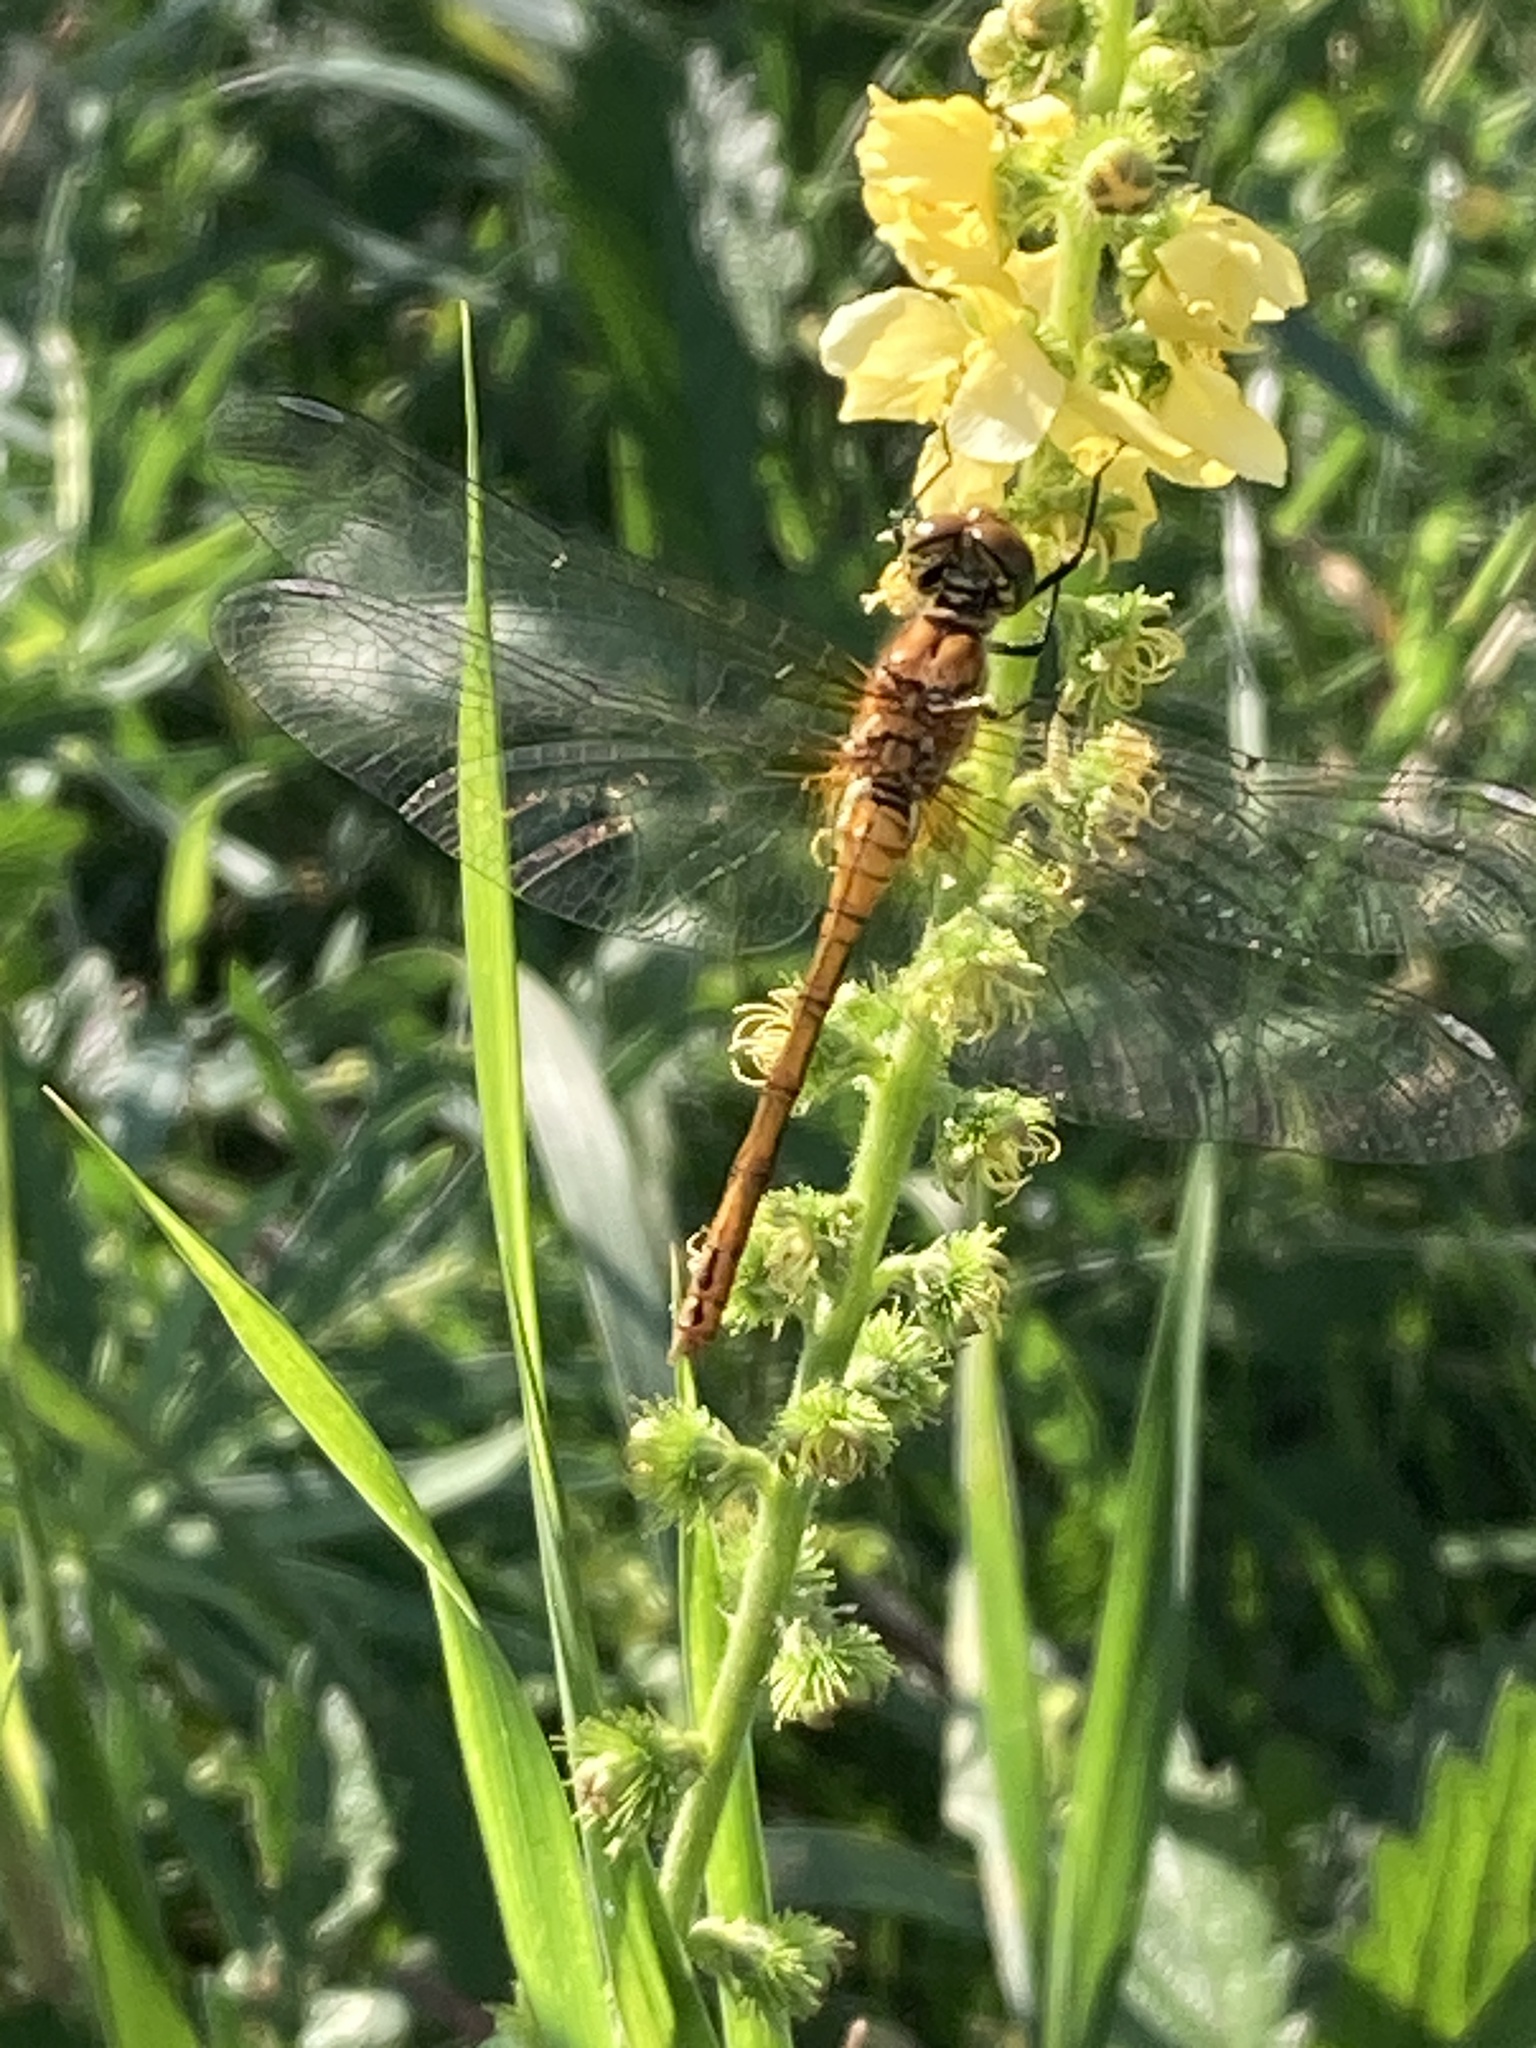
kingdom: Animalia
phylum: Arthropoda
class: Insecta
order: Odonata
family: Libellulidae
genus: Sympetrum
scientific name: Sympetrum sanguineum
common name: Ruddy darter
